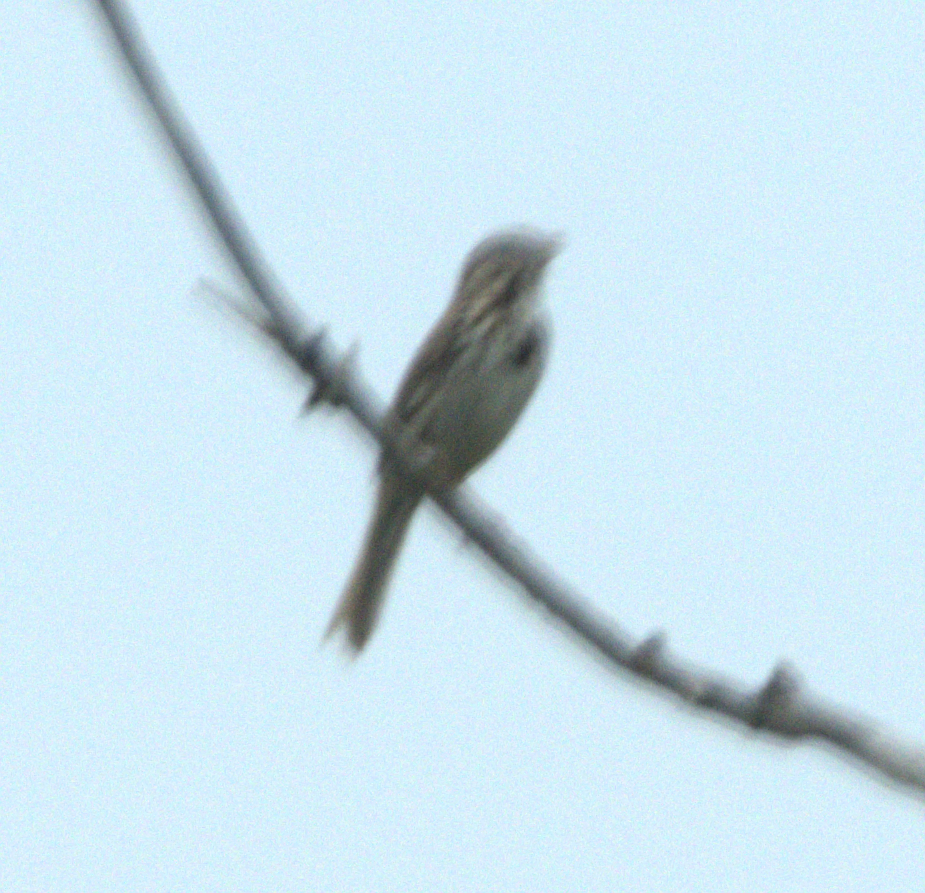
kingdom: Animalia
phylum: Chordata
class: Aves
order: Passeriformes
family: Passerellidae
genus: Melospiza
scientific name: Melospiza melodia
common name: Song sparrow
